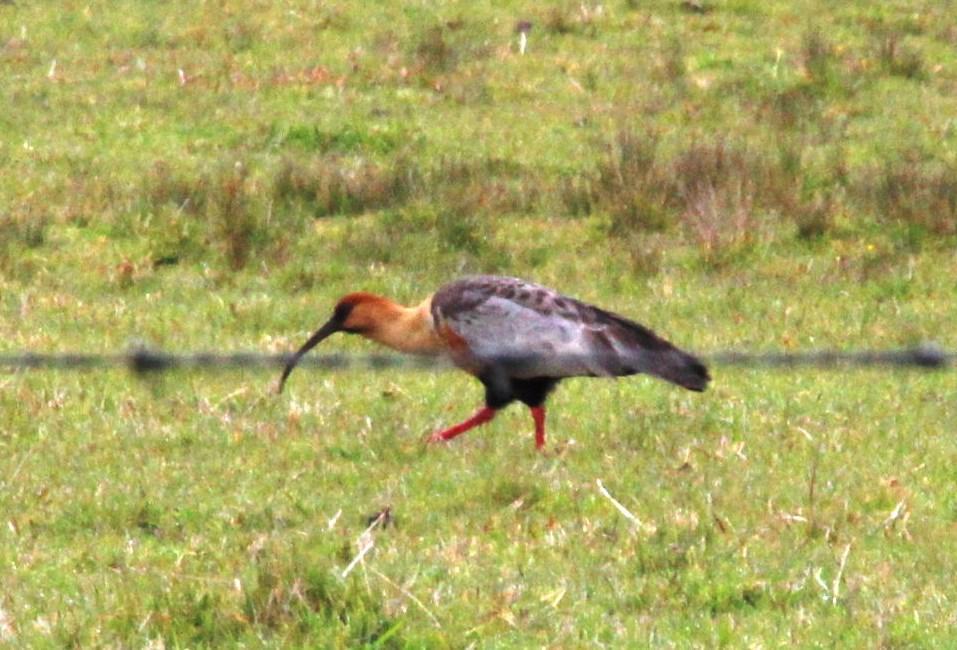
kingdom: Animalia
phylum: Chordata
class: Aves
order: Pelecaniformes
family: Threskiornithidae
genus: Theristicus
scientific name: Theristicus melanopis
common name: Black-faced ibis
